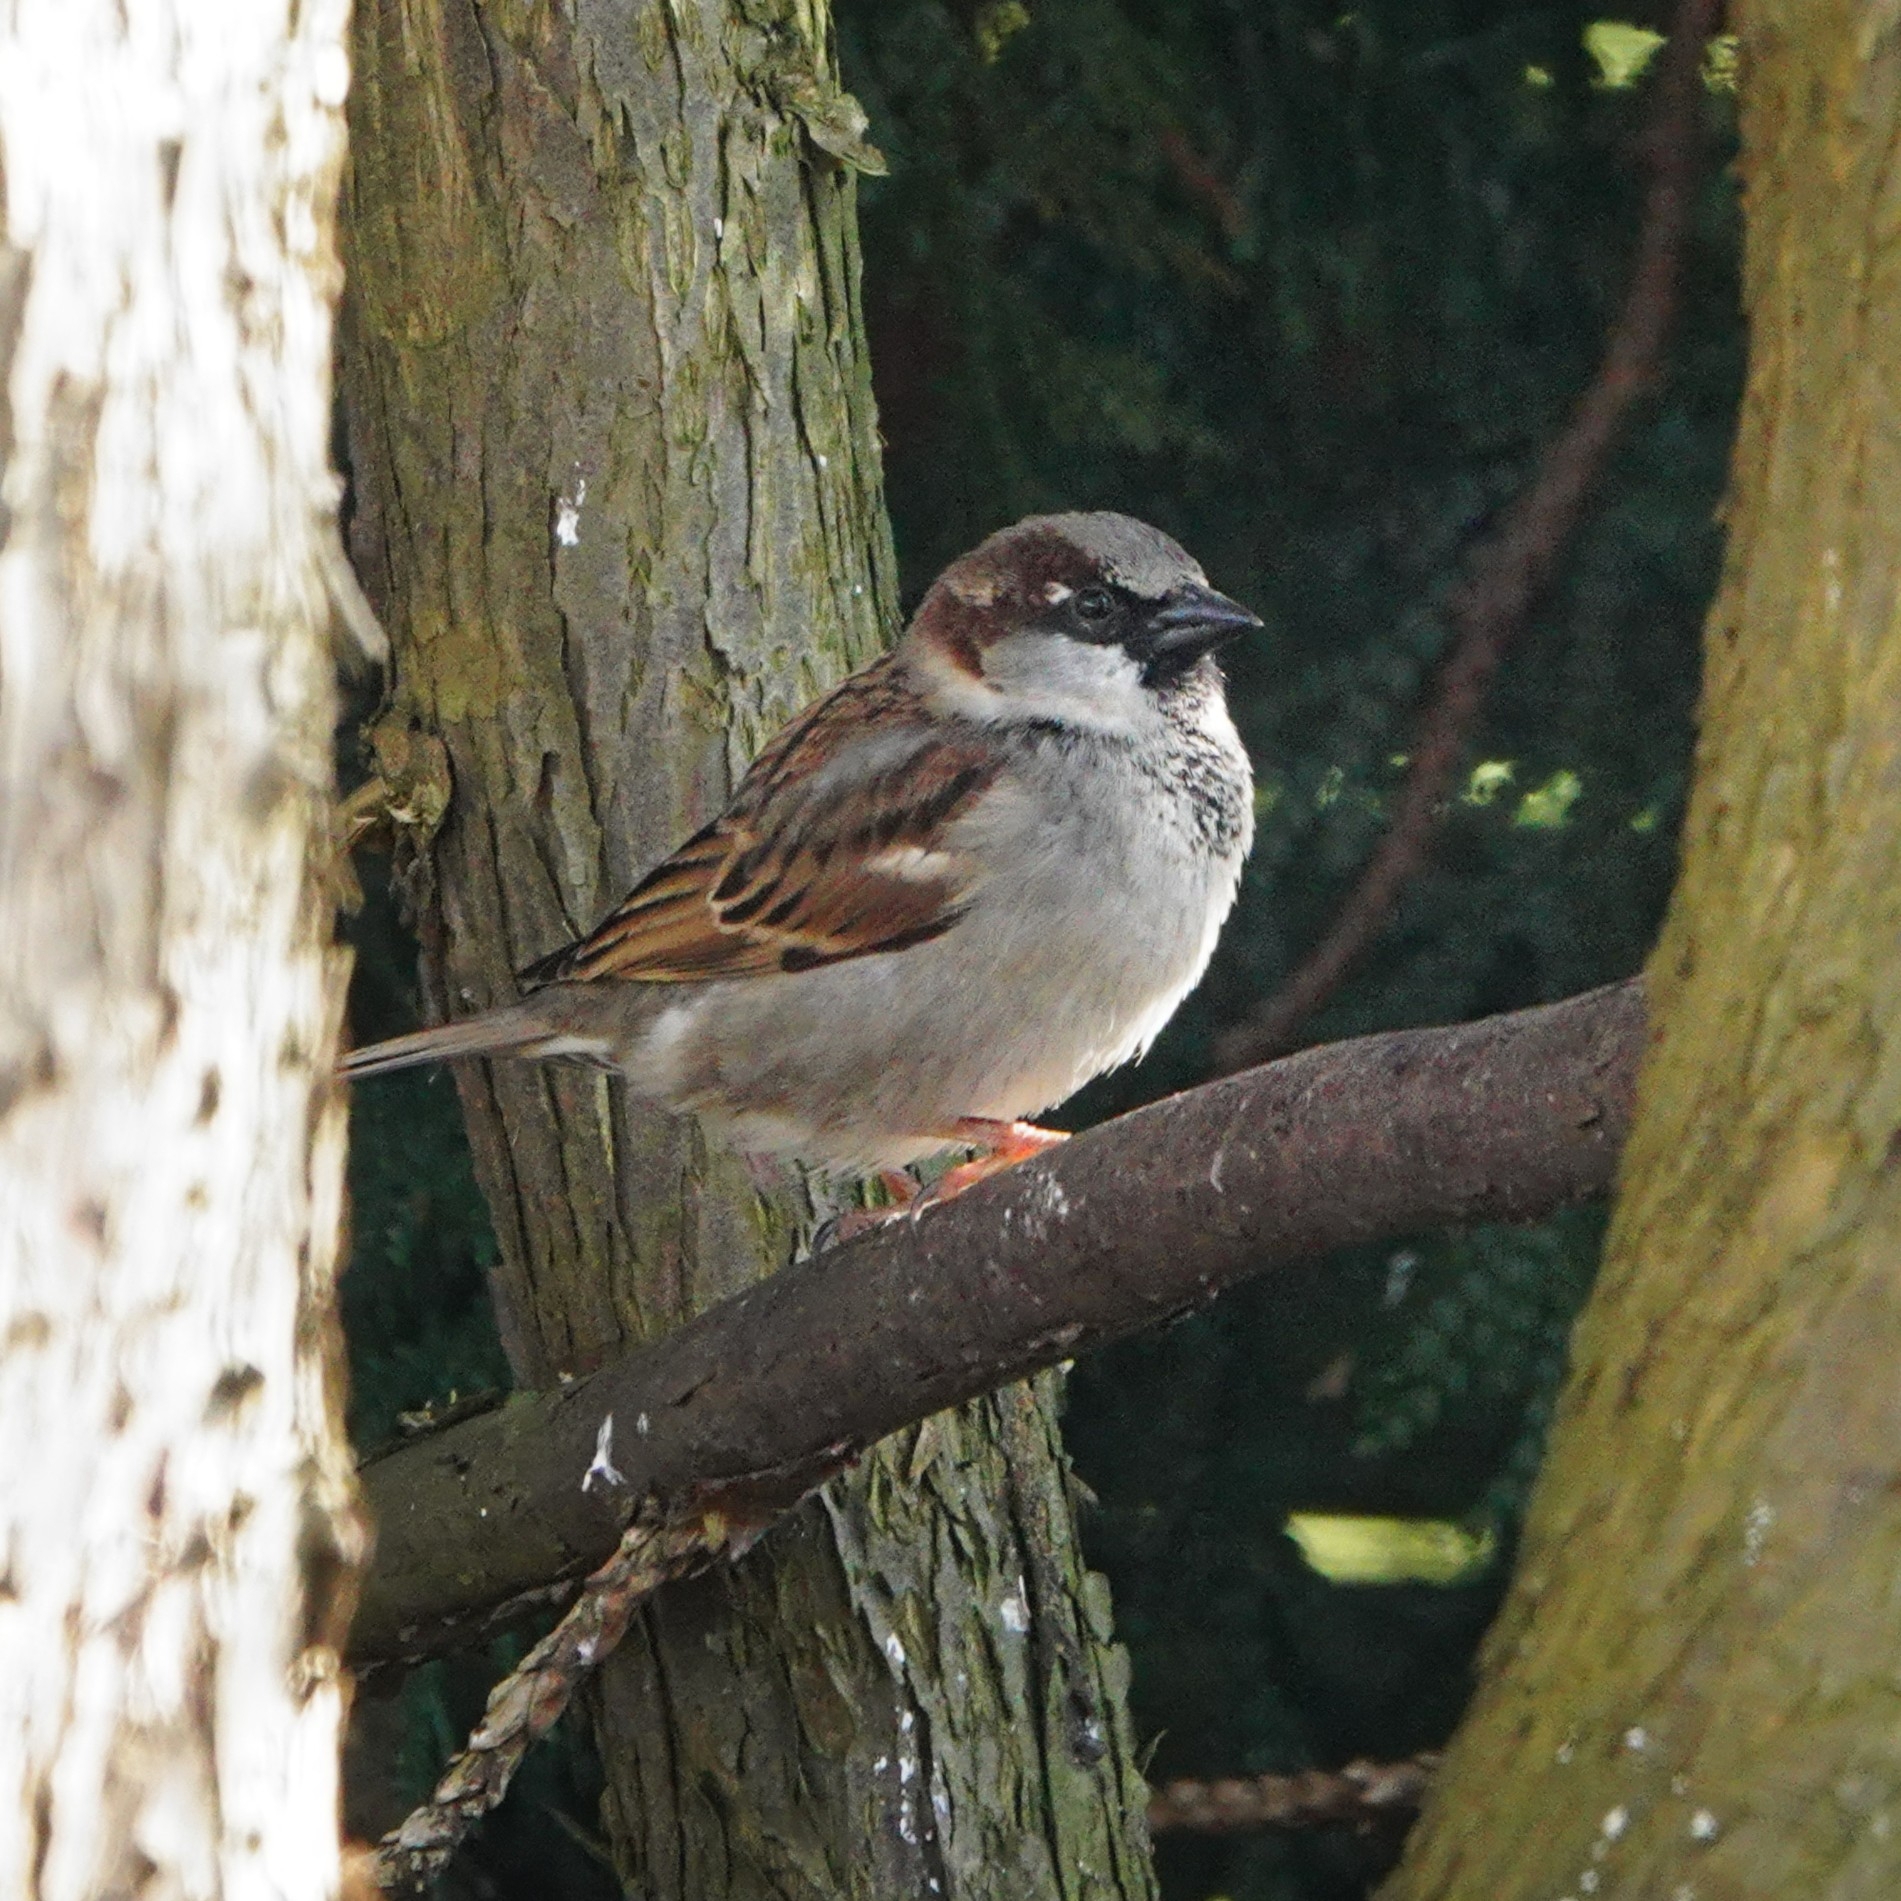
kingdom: Animalia
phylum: Chordata
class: Aves
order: Passeriformes
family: Passeridae
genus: Passer
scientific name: Passer domesticus
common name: House sparrow
